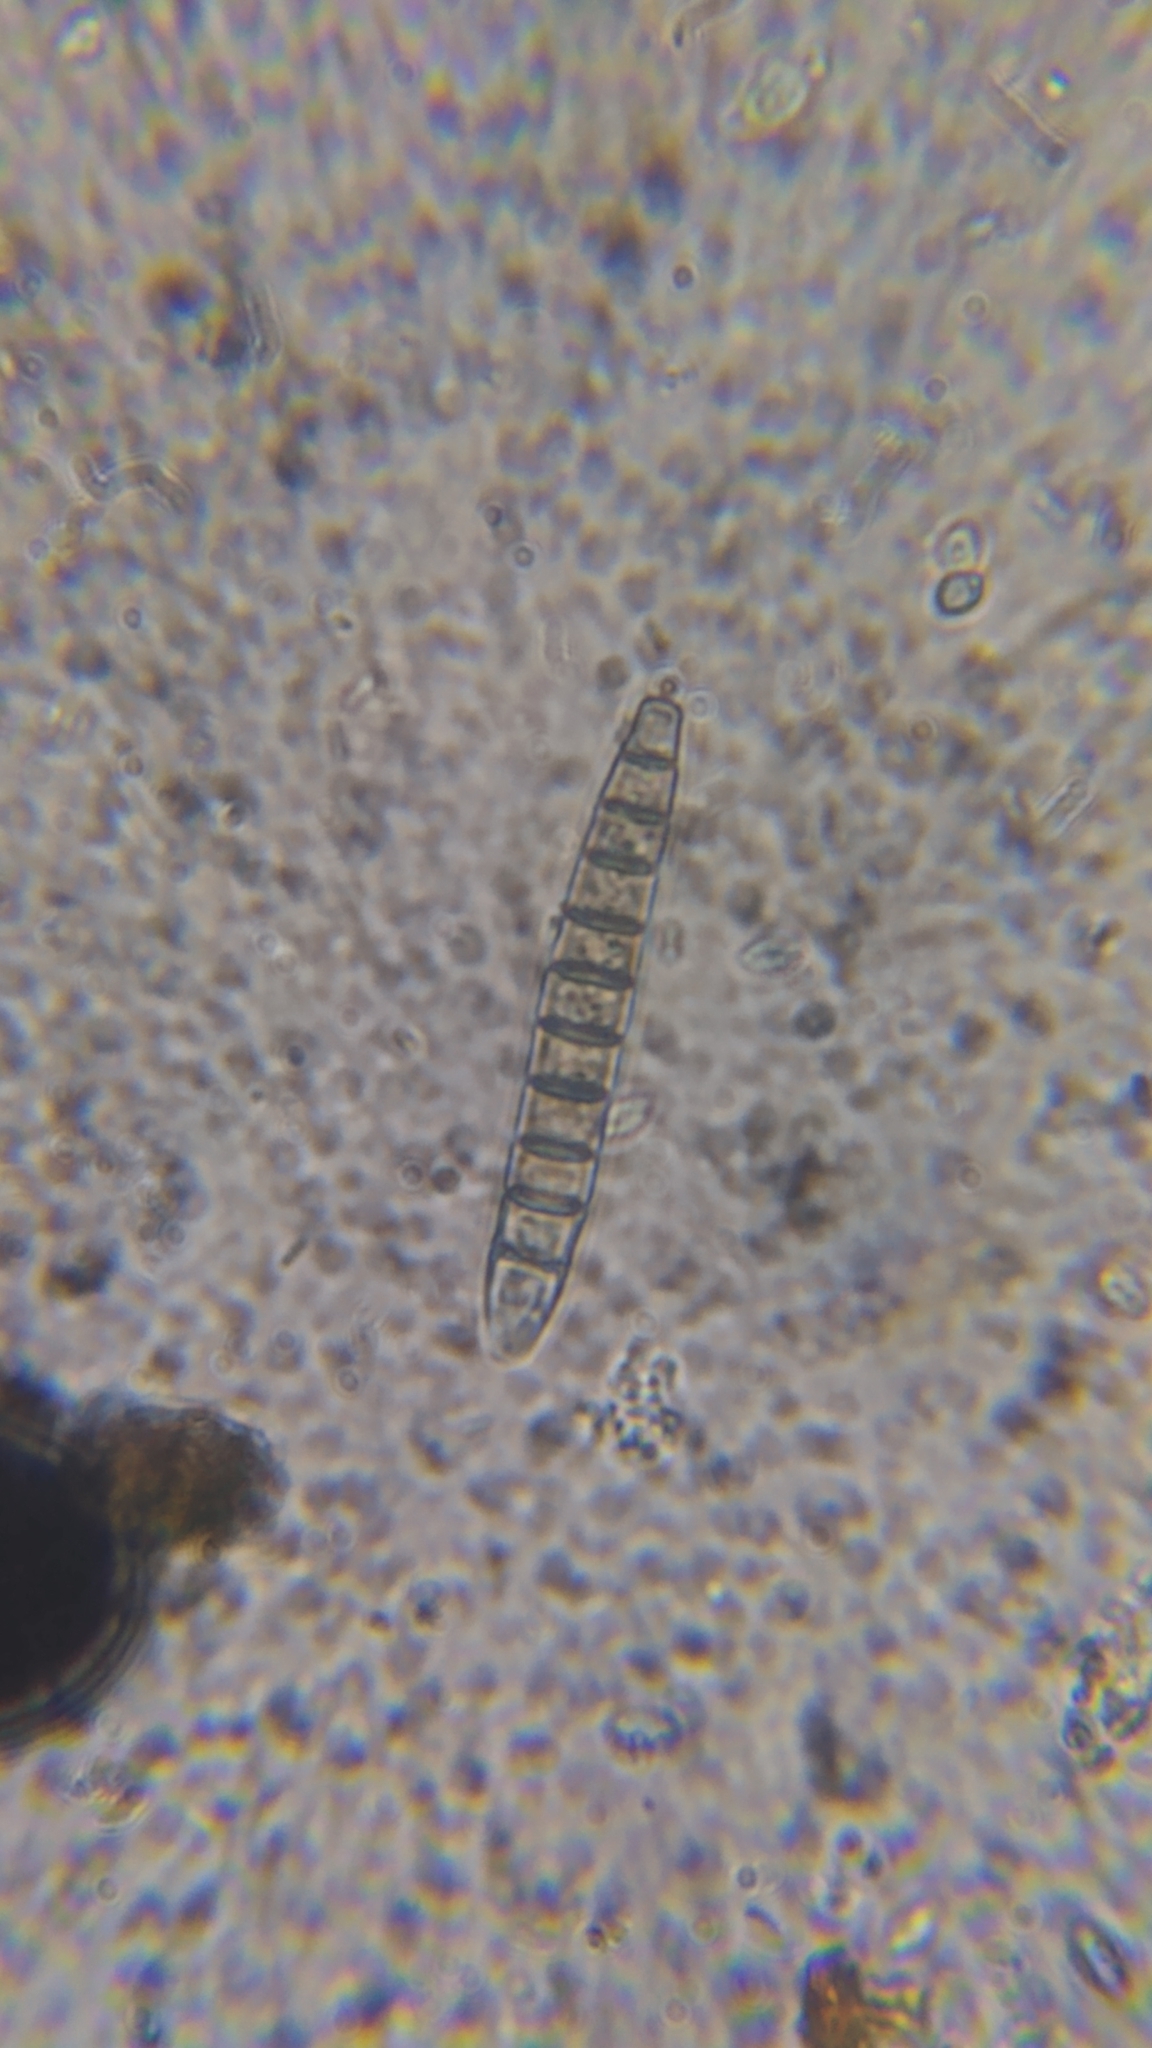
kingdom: Fungi
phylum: Ascomycota
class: Sordariomycetes
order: Sordariales
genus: Brachysporiella
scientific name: Brachysporiella setosa
